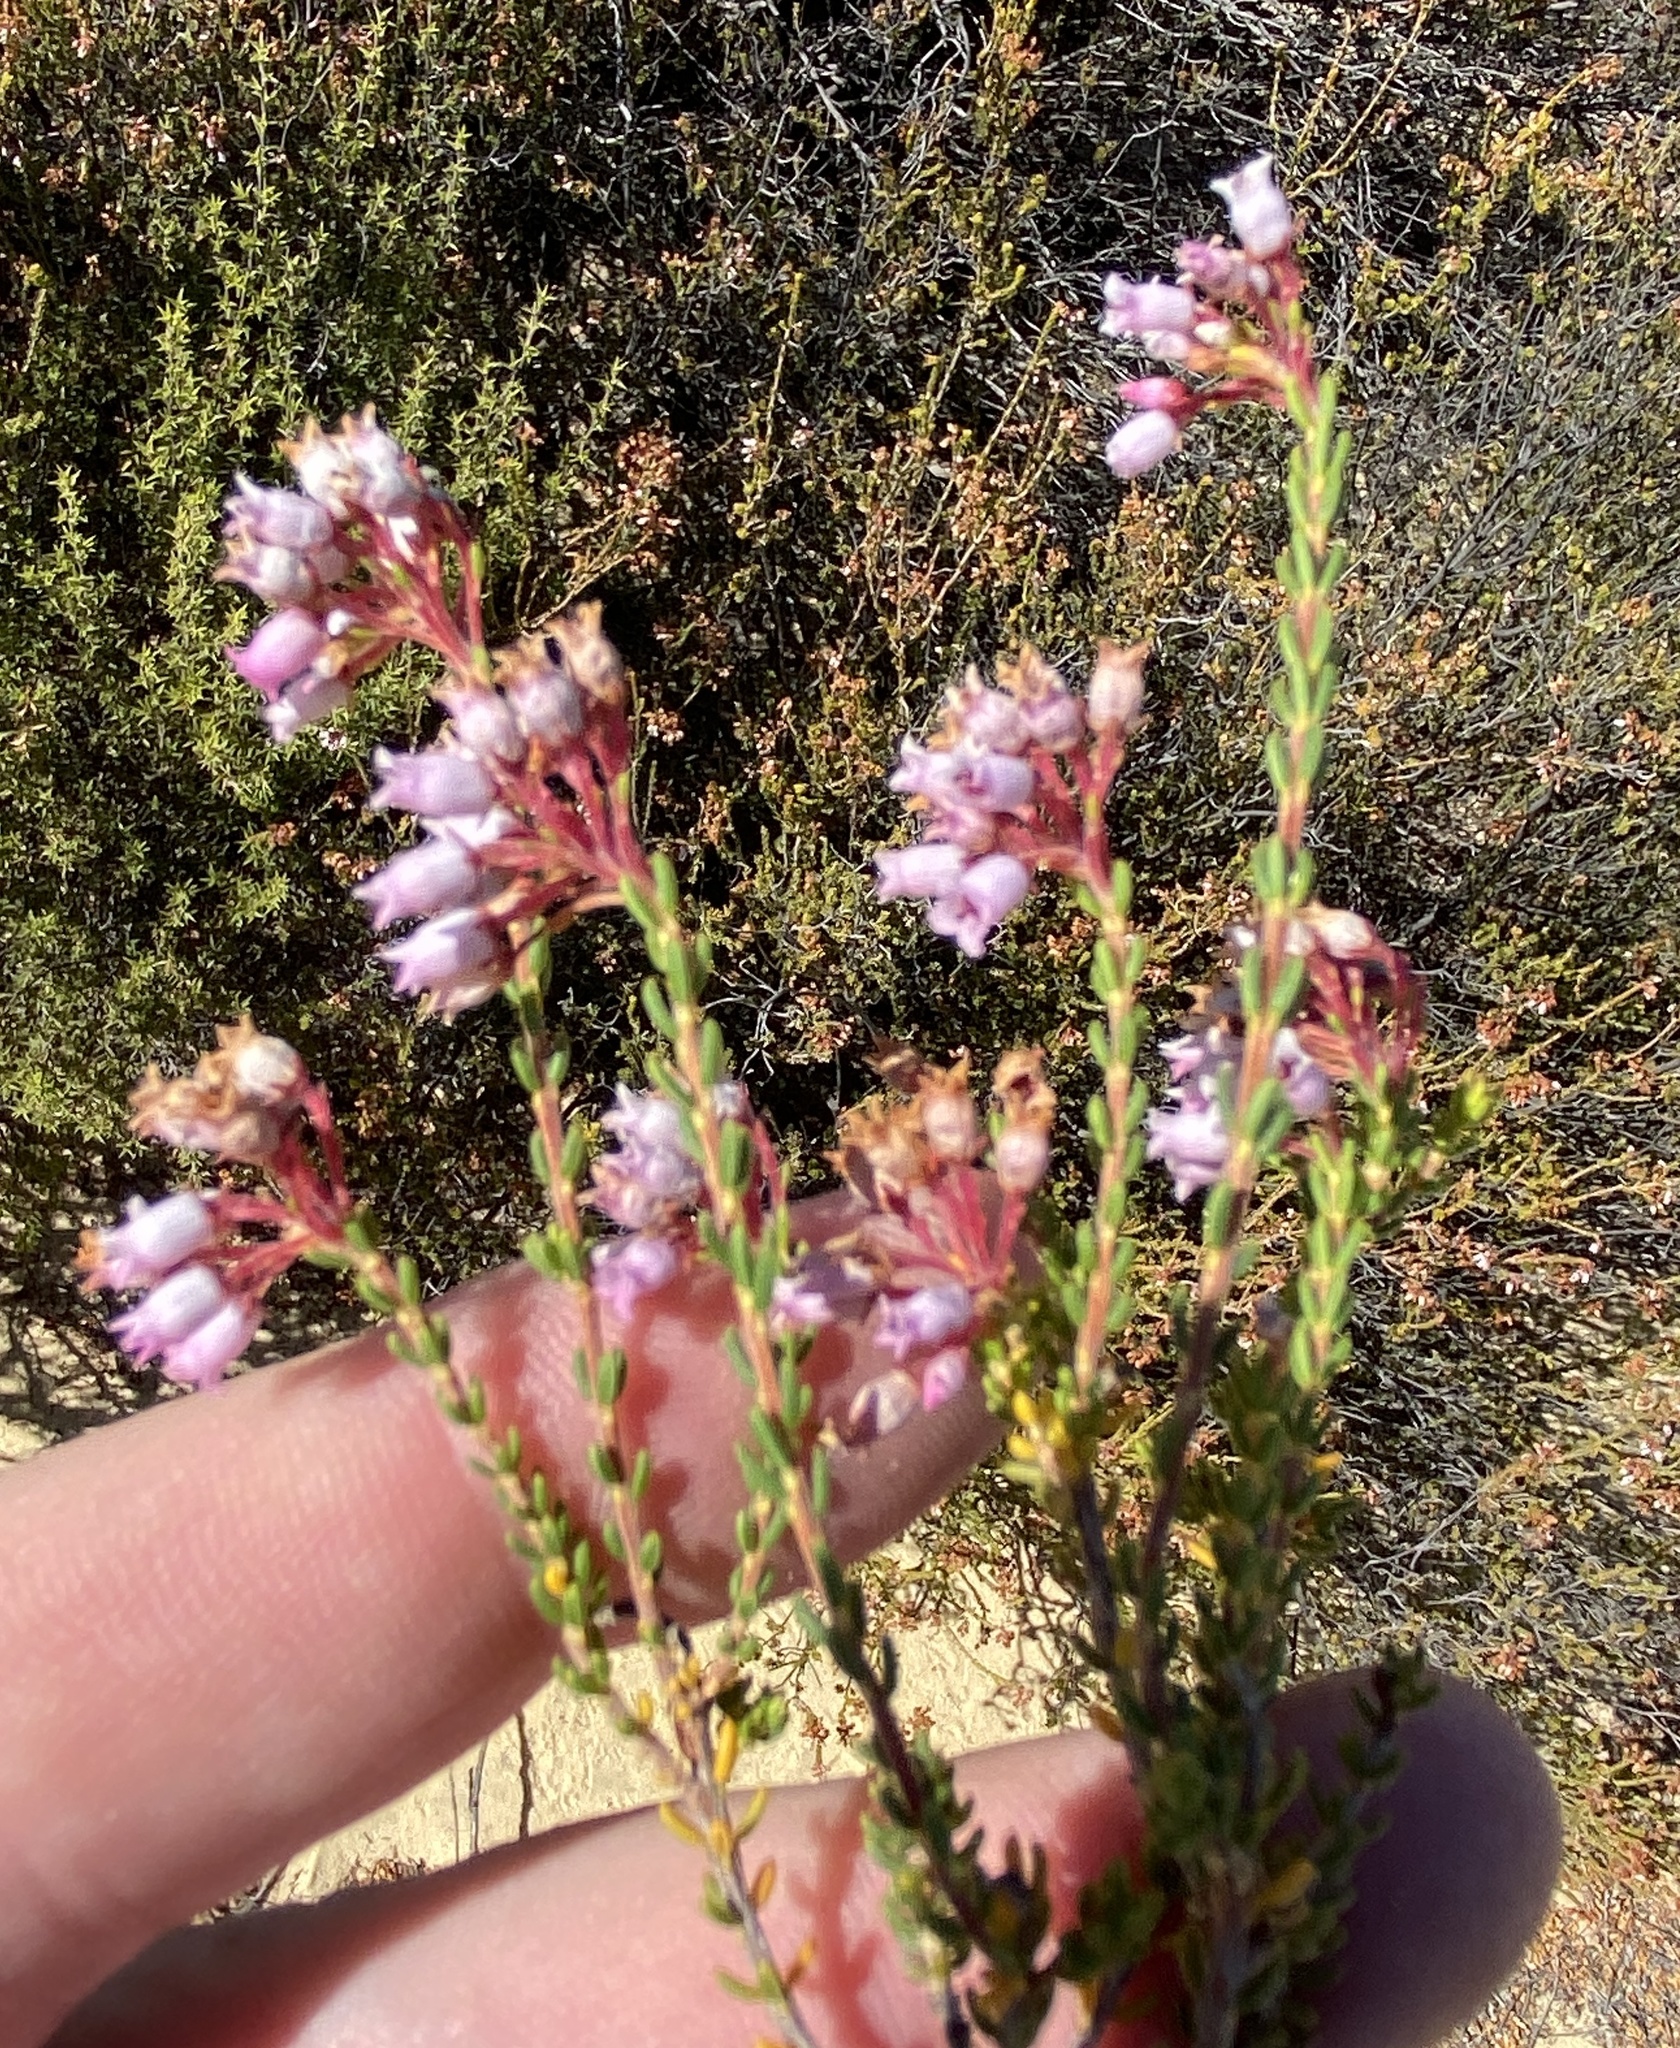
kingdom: Plantae
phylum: Tracheophyta
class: Magnoliopsida
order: Ericales
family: Ericaceae
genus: Erica
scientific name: Erica verecunda
